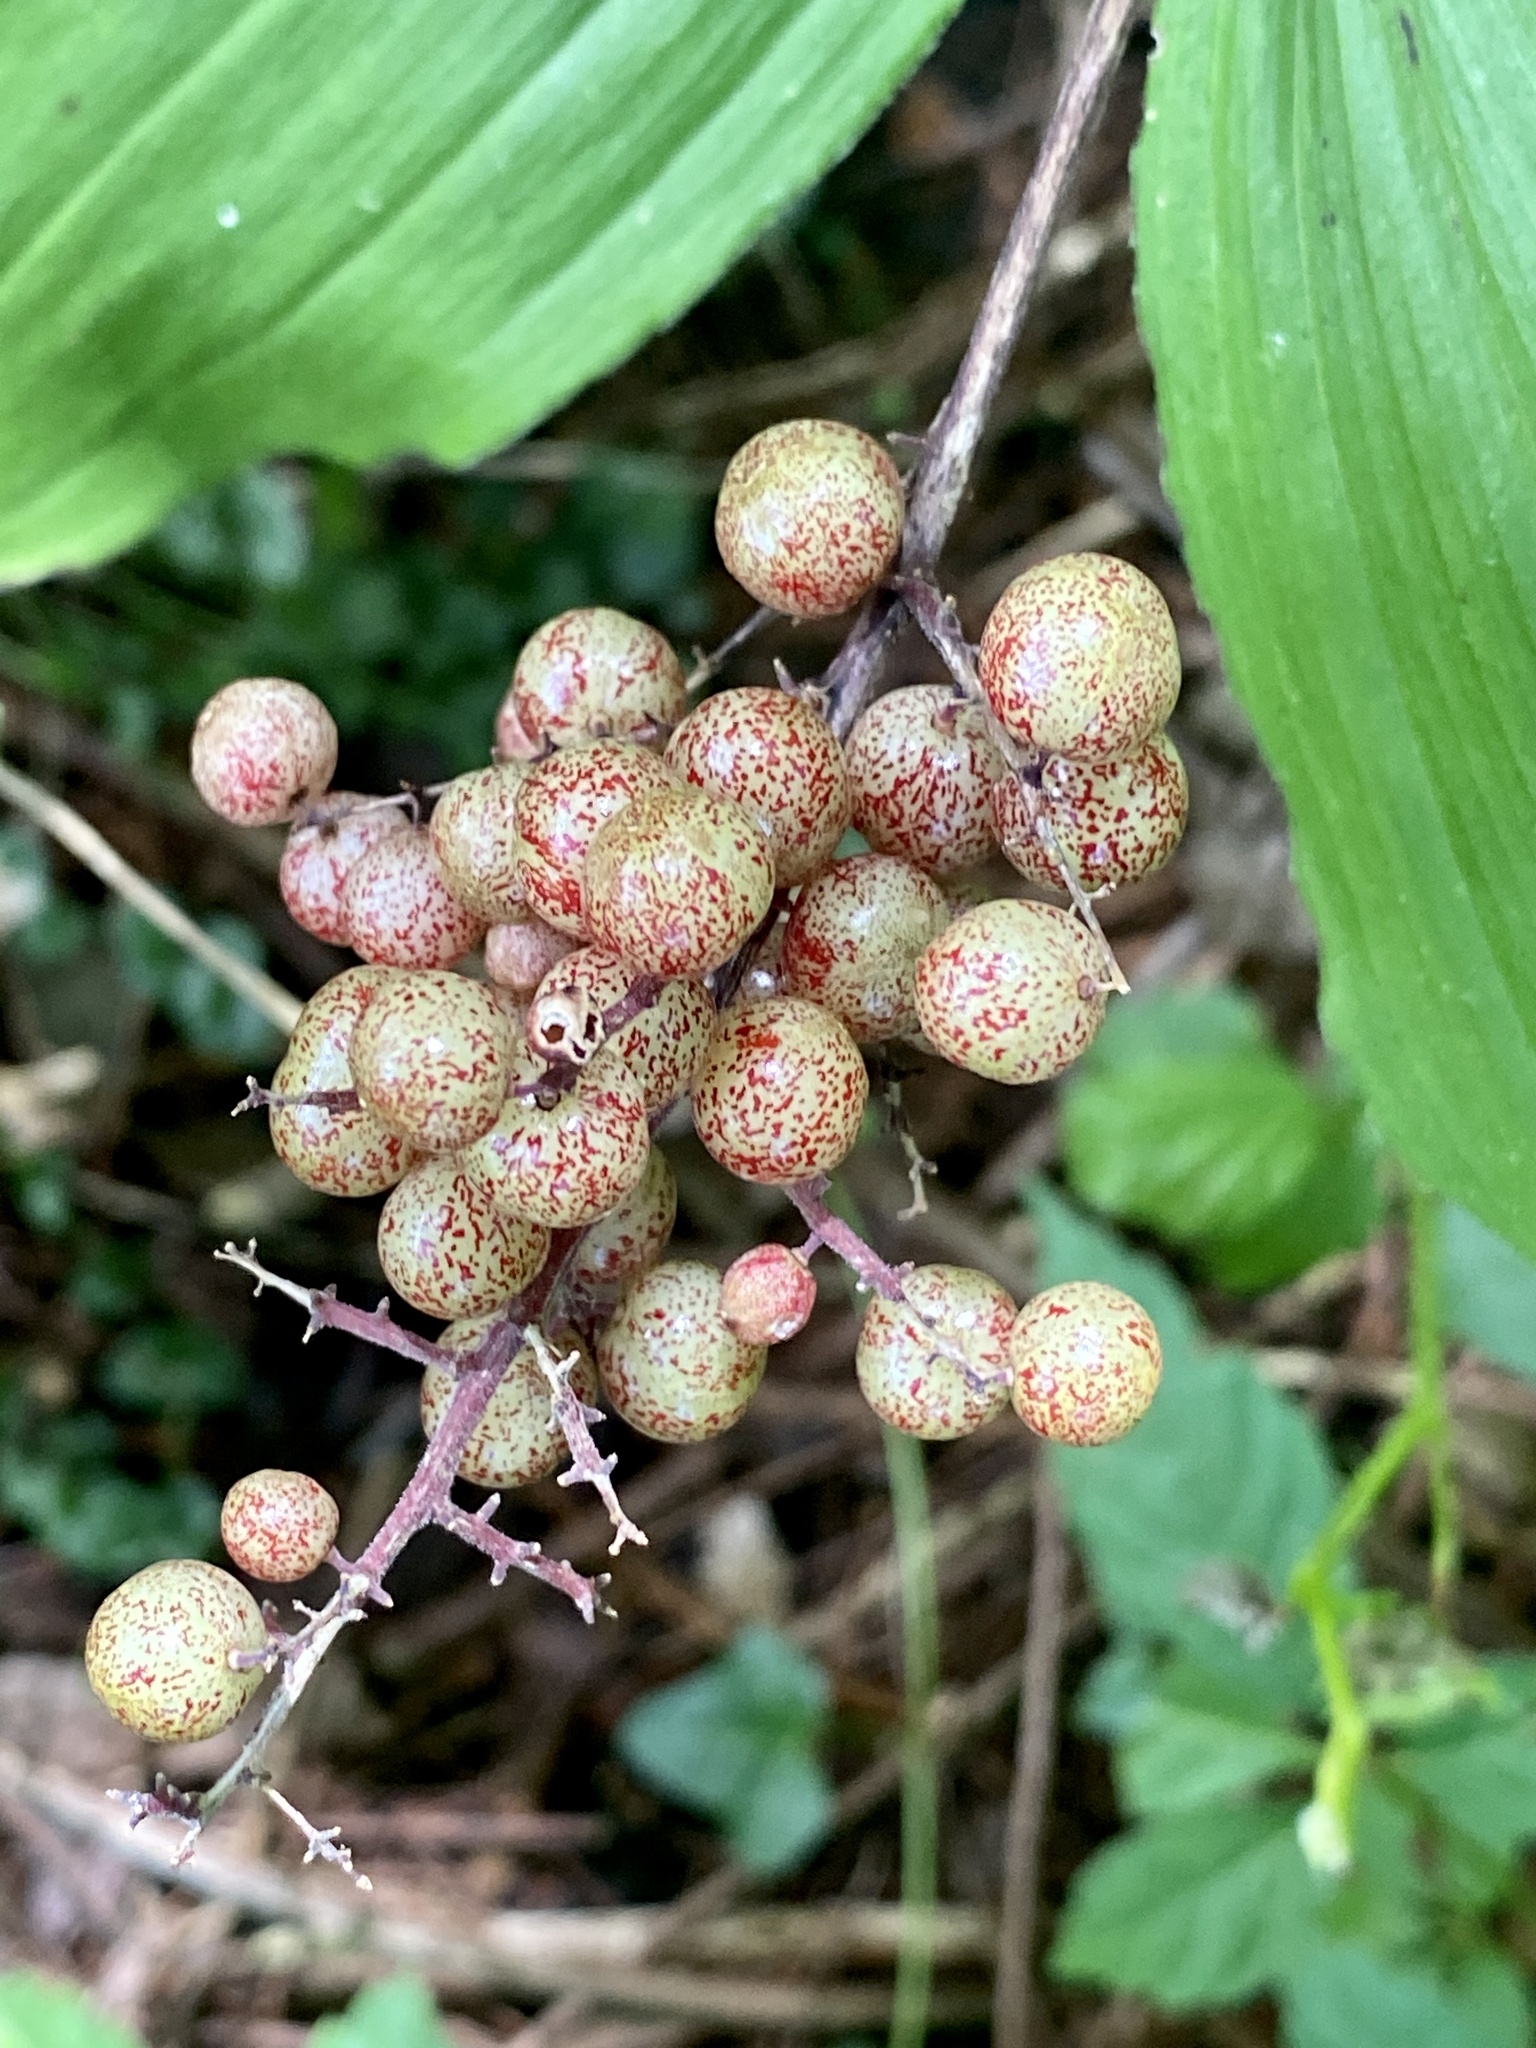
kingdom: Plantae
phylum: Tracheophyta
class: Liliopsida
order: Asparagales
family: Asparagaceae
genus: Maianthemum
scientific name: Maianthemum racemosum
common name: False spikenard
